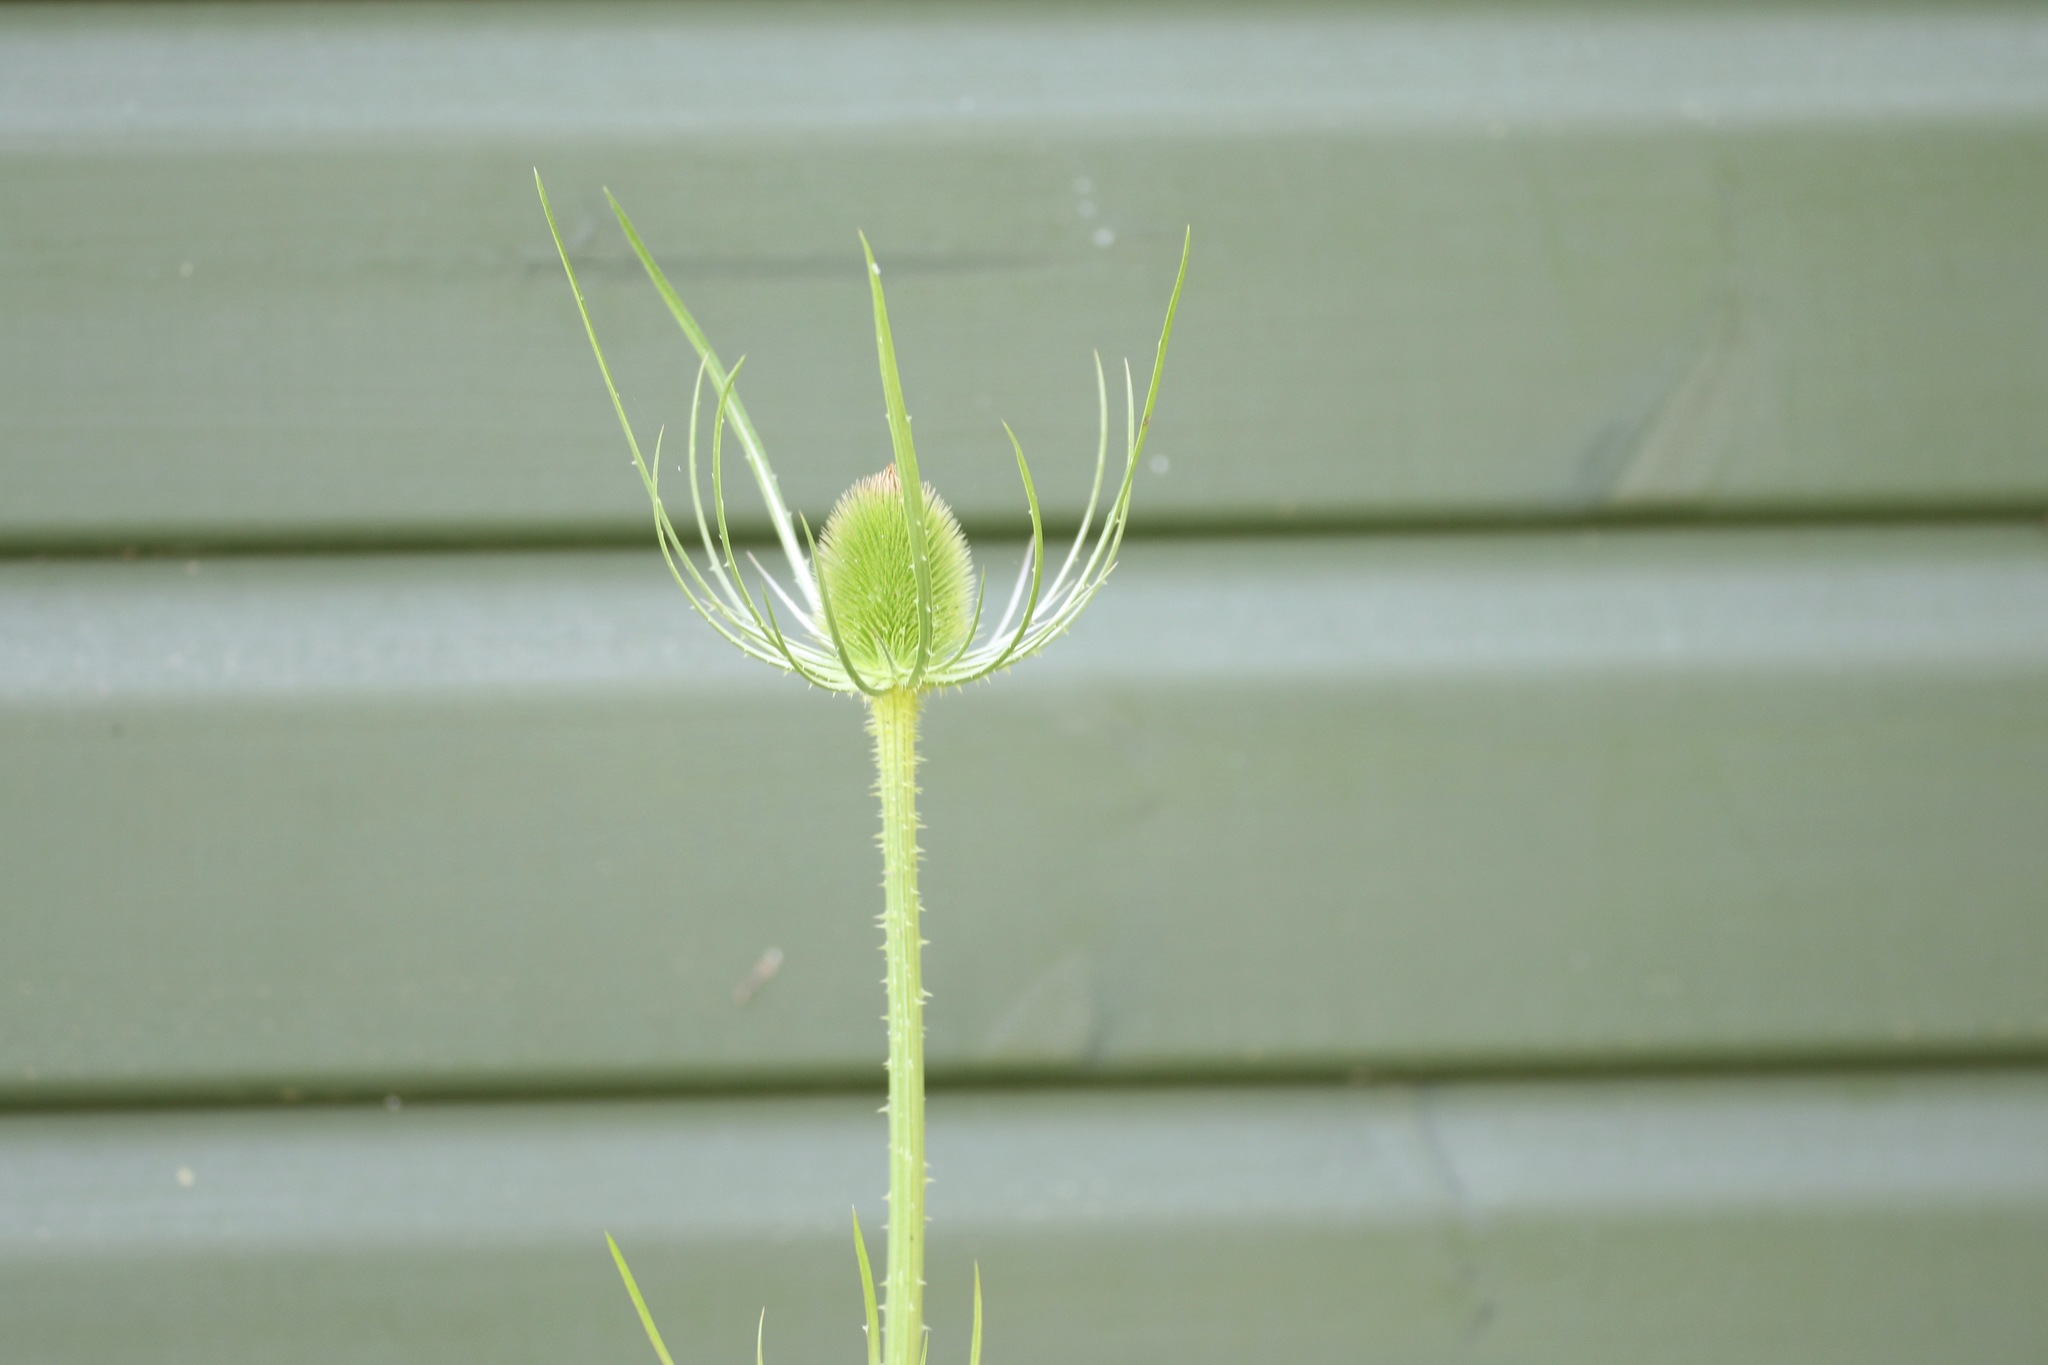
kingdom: Plantae
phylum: Tracheophyta
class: Magnoliopsida
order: Dipsacales
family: Caprifoliaceae
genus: Dipsacus
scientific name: Dipsacus fullonum
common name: Teasel
